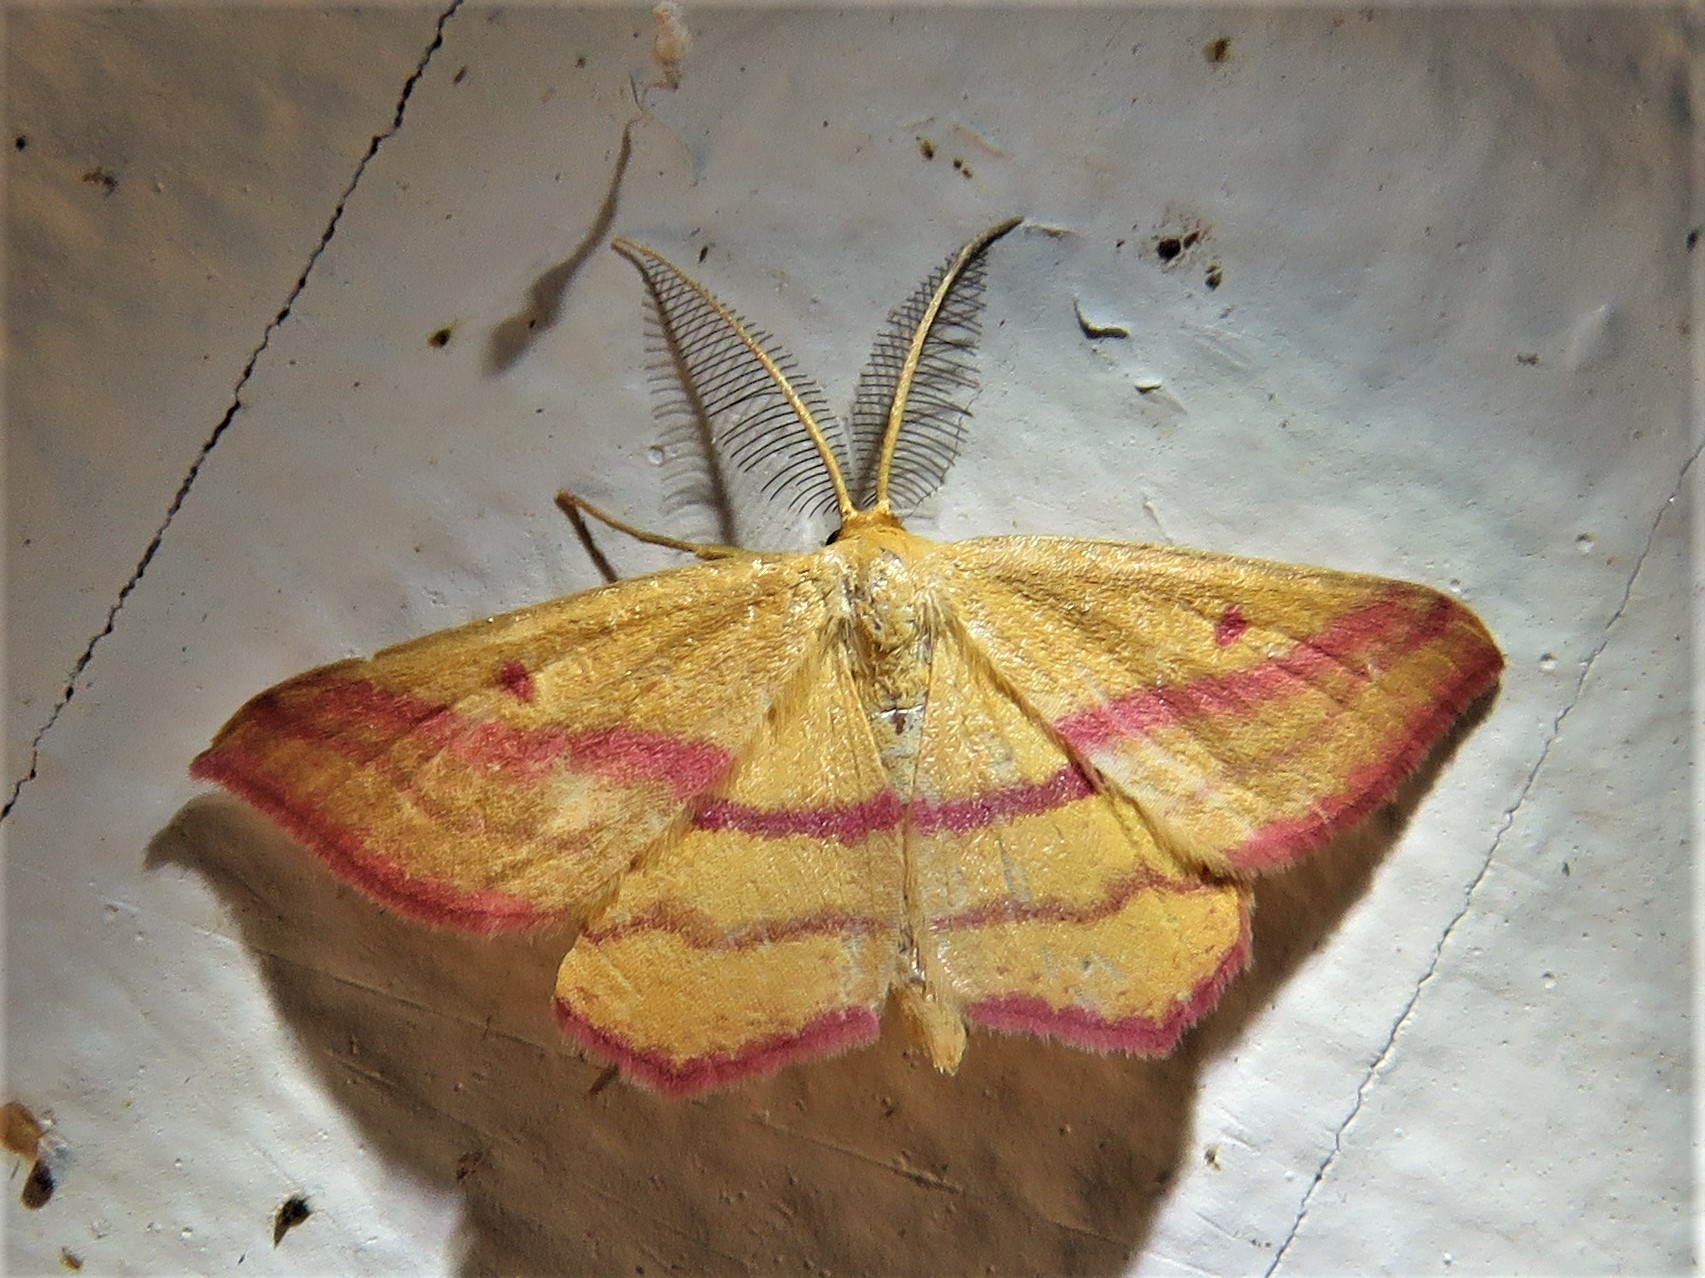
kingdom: Animalia
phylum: Arthropoda
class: Insecta
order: Lepidoptera
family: Geometridae
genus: Haematopis
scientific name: Haematopis grataria
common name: Chickweed geometer
